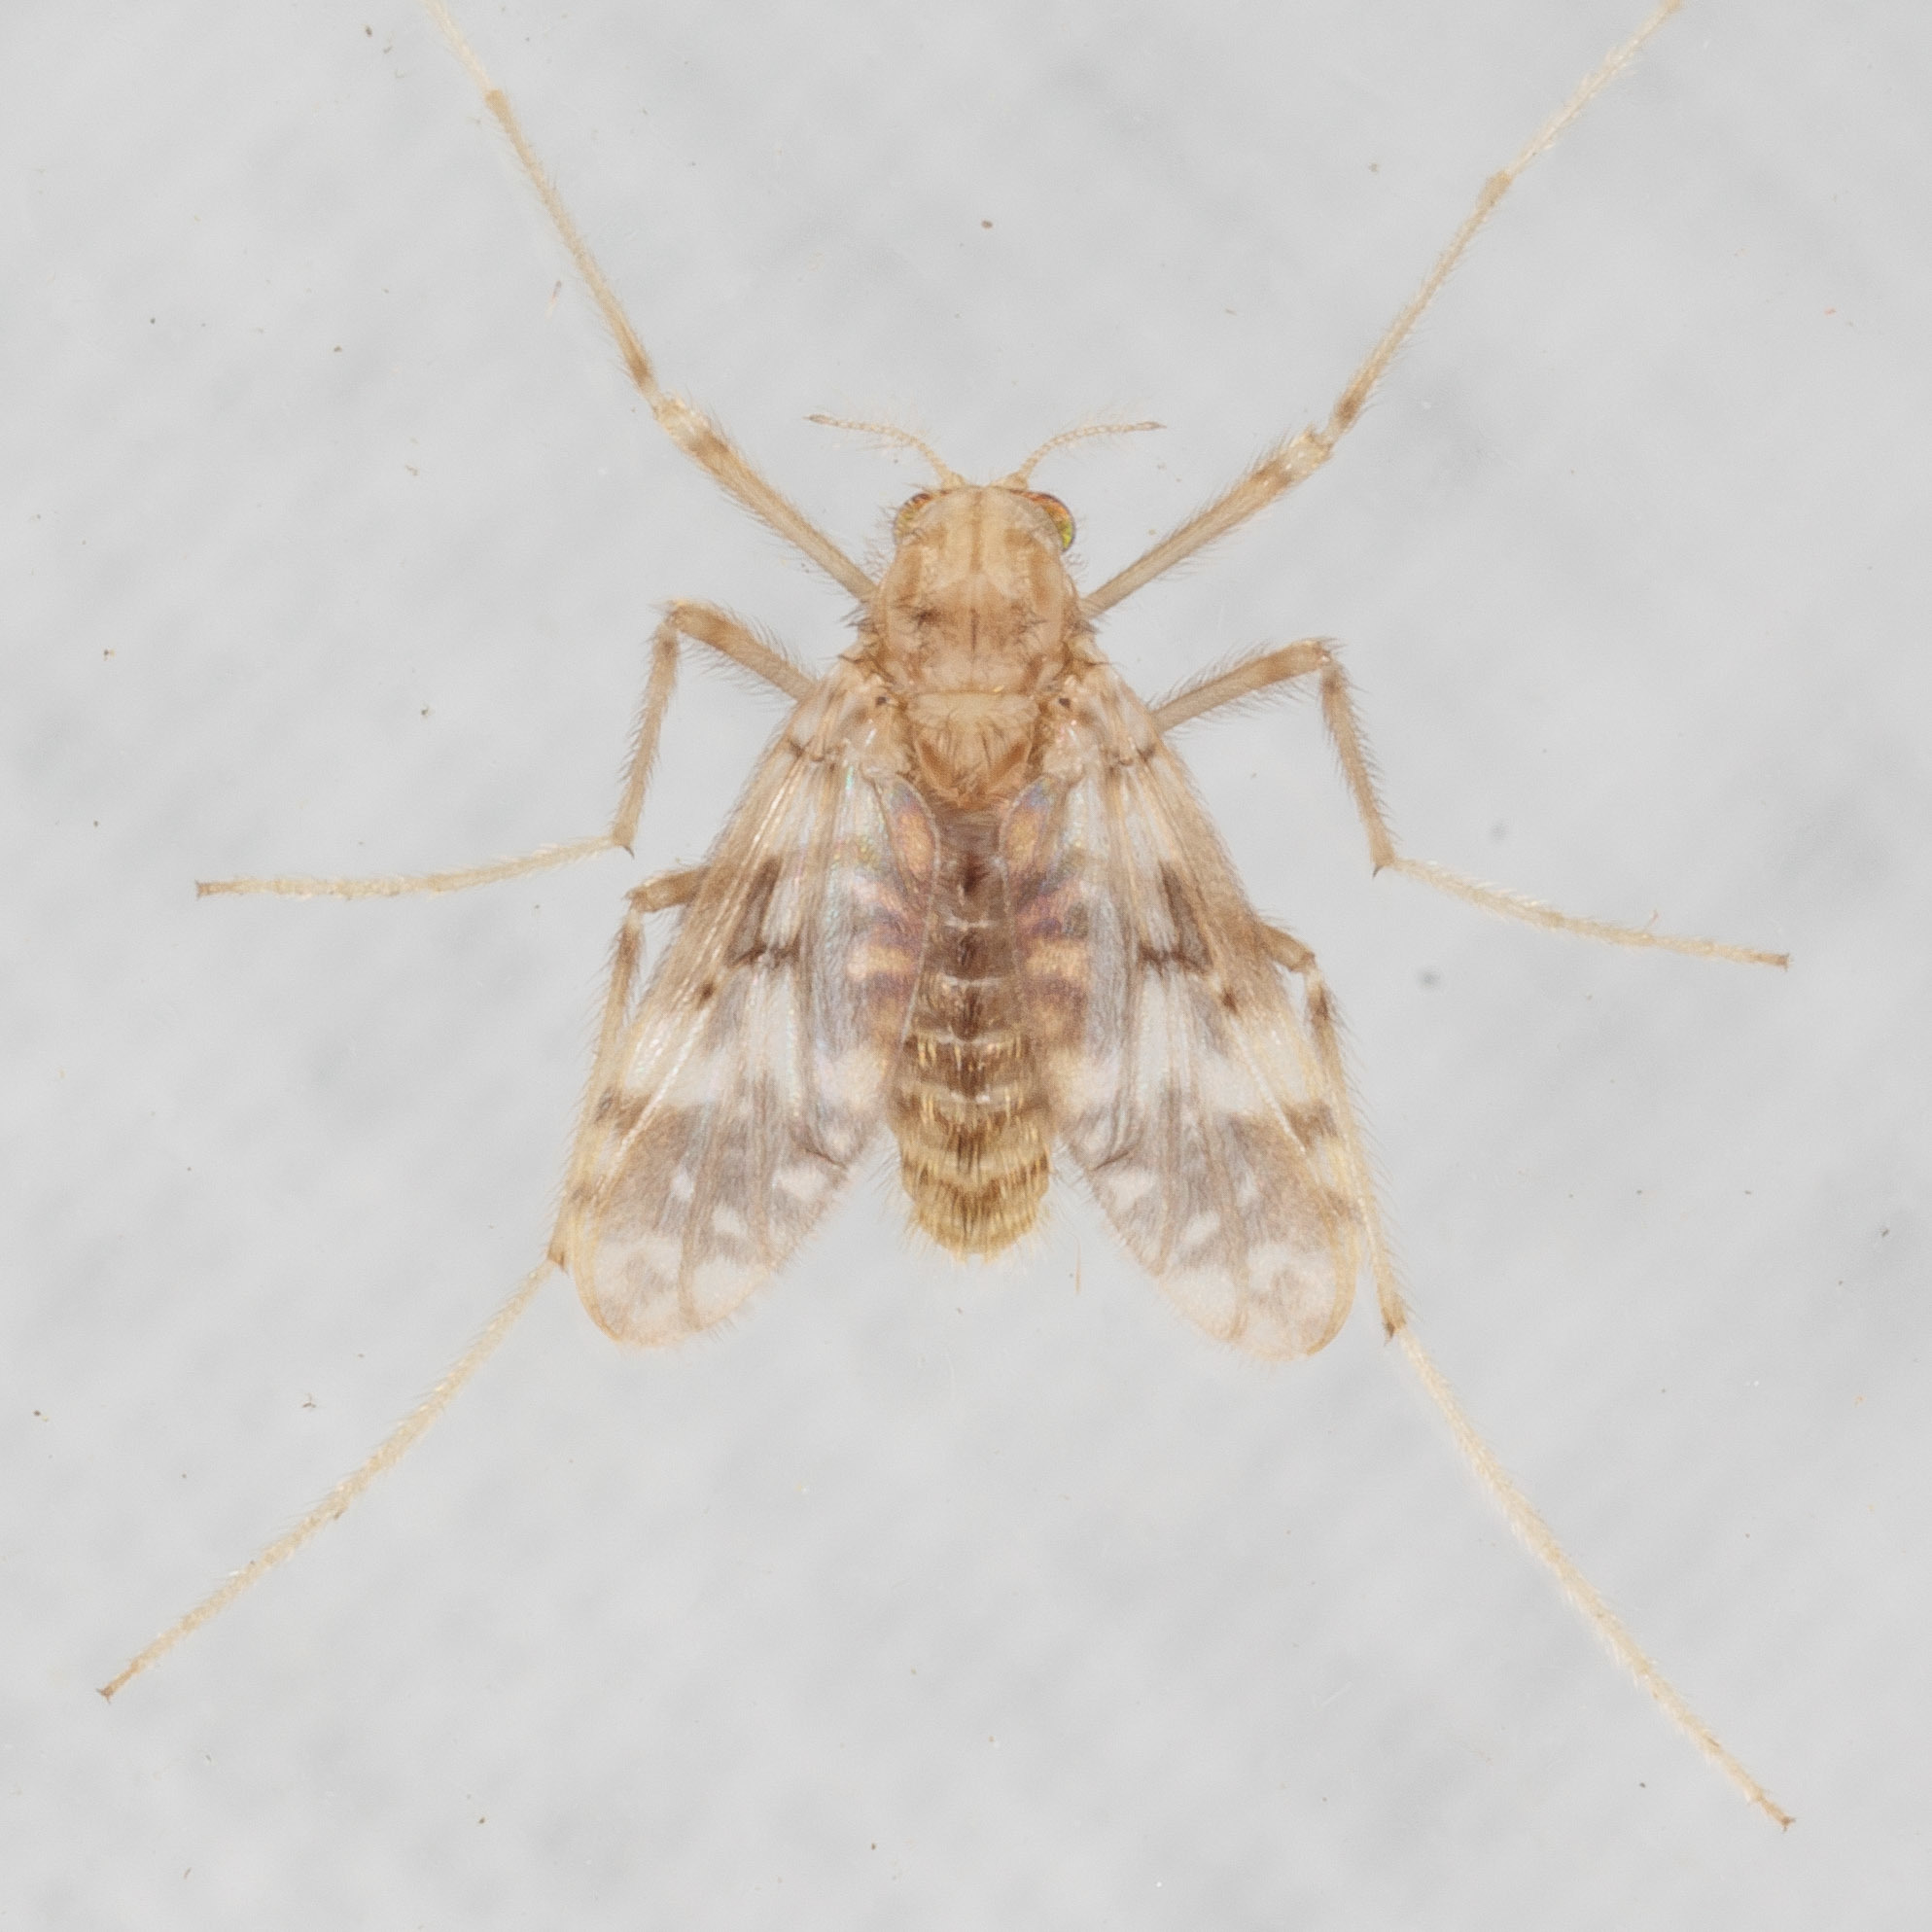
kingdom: Animalia
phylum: Arthropoda
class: Insecta
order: Diptera
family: Chironomidae
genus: Psectrotanypus
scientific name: Psectrotanypus dyari
